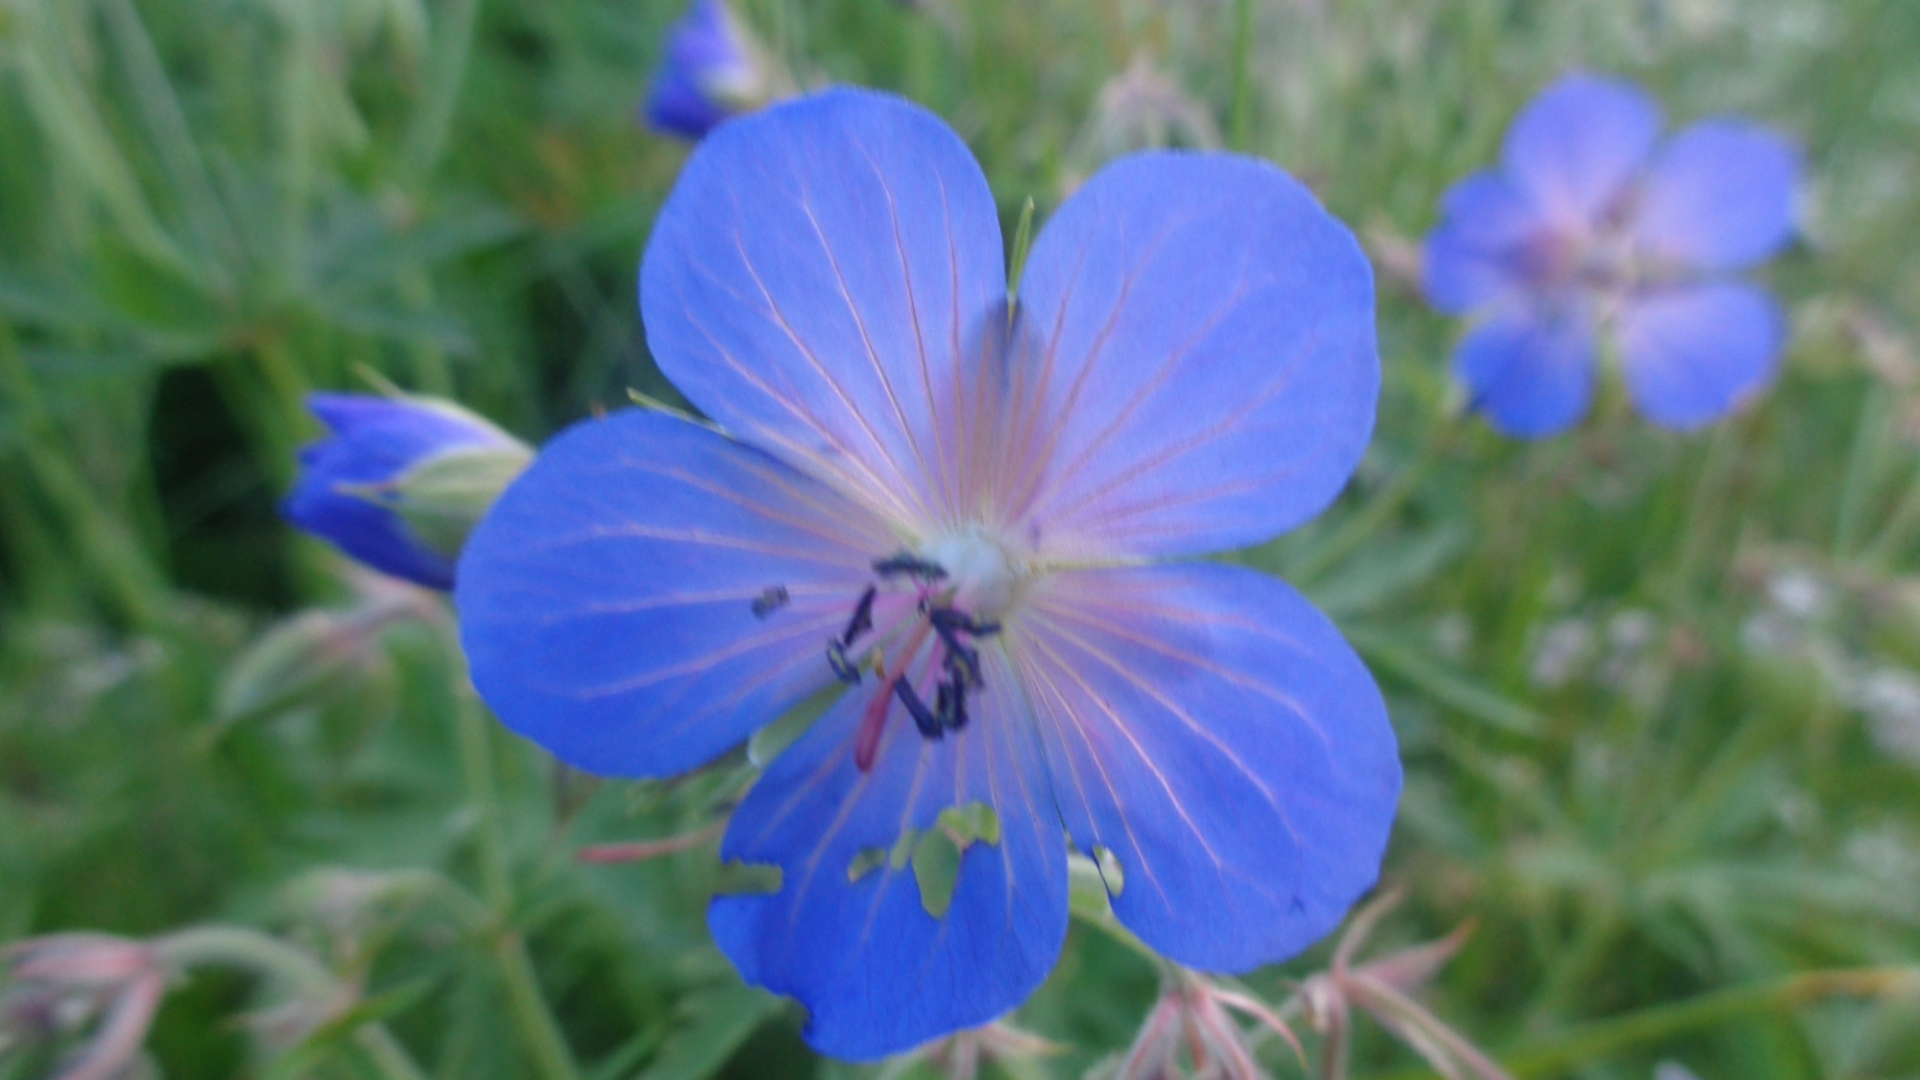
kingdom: Plantae
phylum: Tracheophyta
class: Magnoliopsida
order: Geraniales
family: Geraniaceae
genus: Geranium
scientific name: Geranium pratense
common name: Meadow crane's-bill
